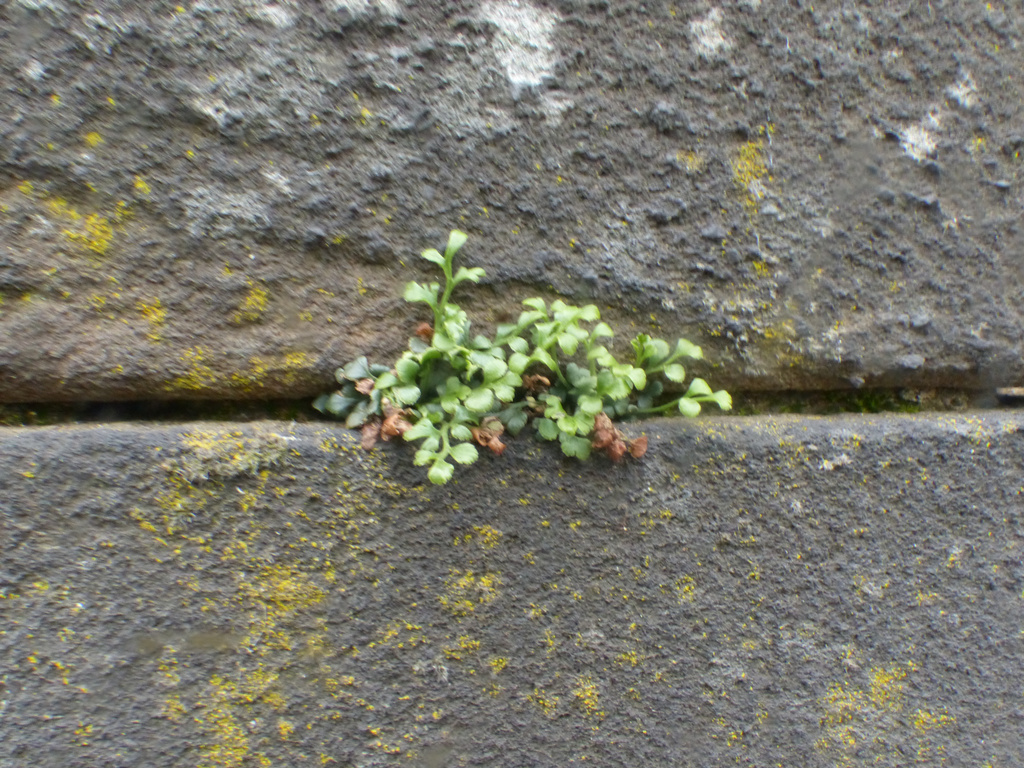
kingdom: Plantae
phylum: Tracheophyta
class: Polypodiopsida
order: Polypodiales
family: Aspleniaceae
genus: Asplenium
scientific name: Asplenium ruta-muraria
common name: Wall-rue
